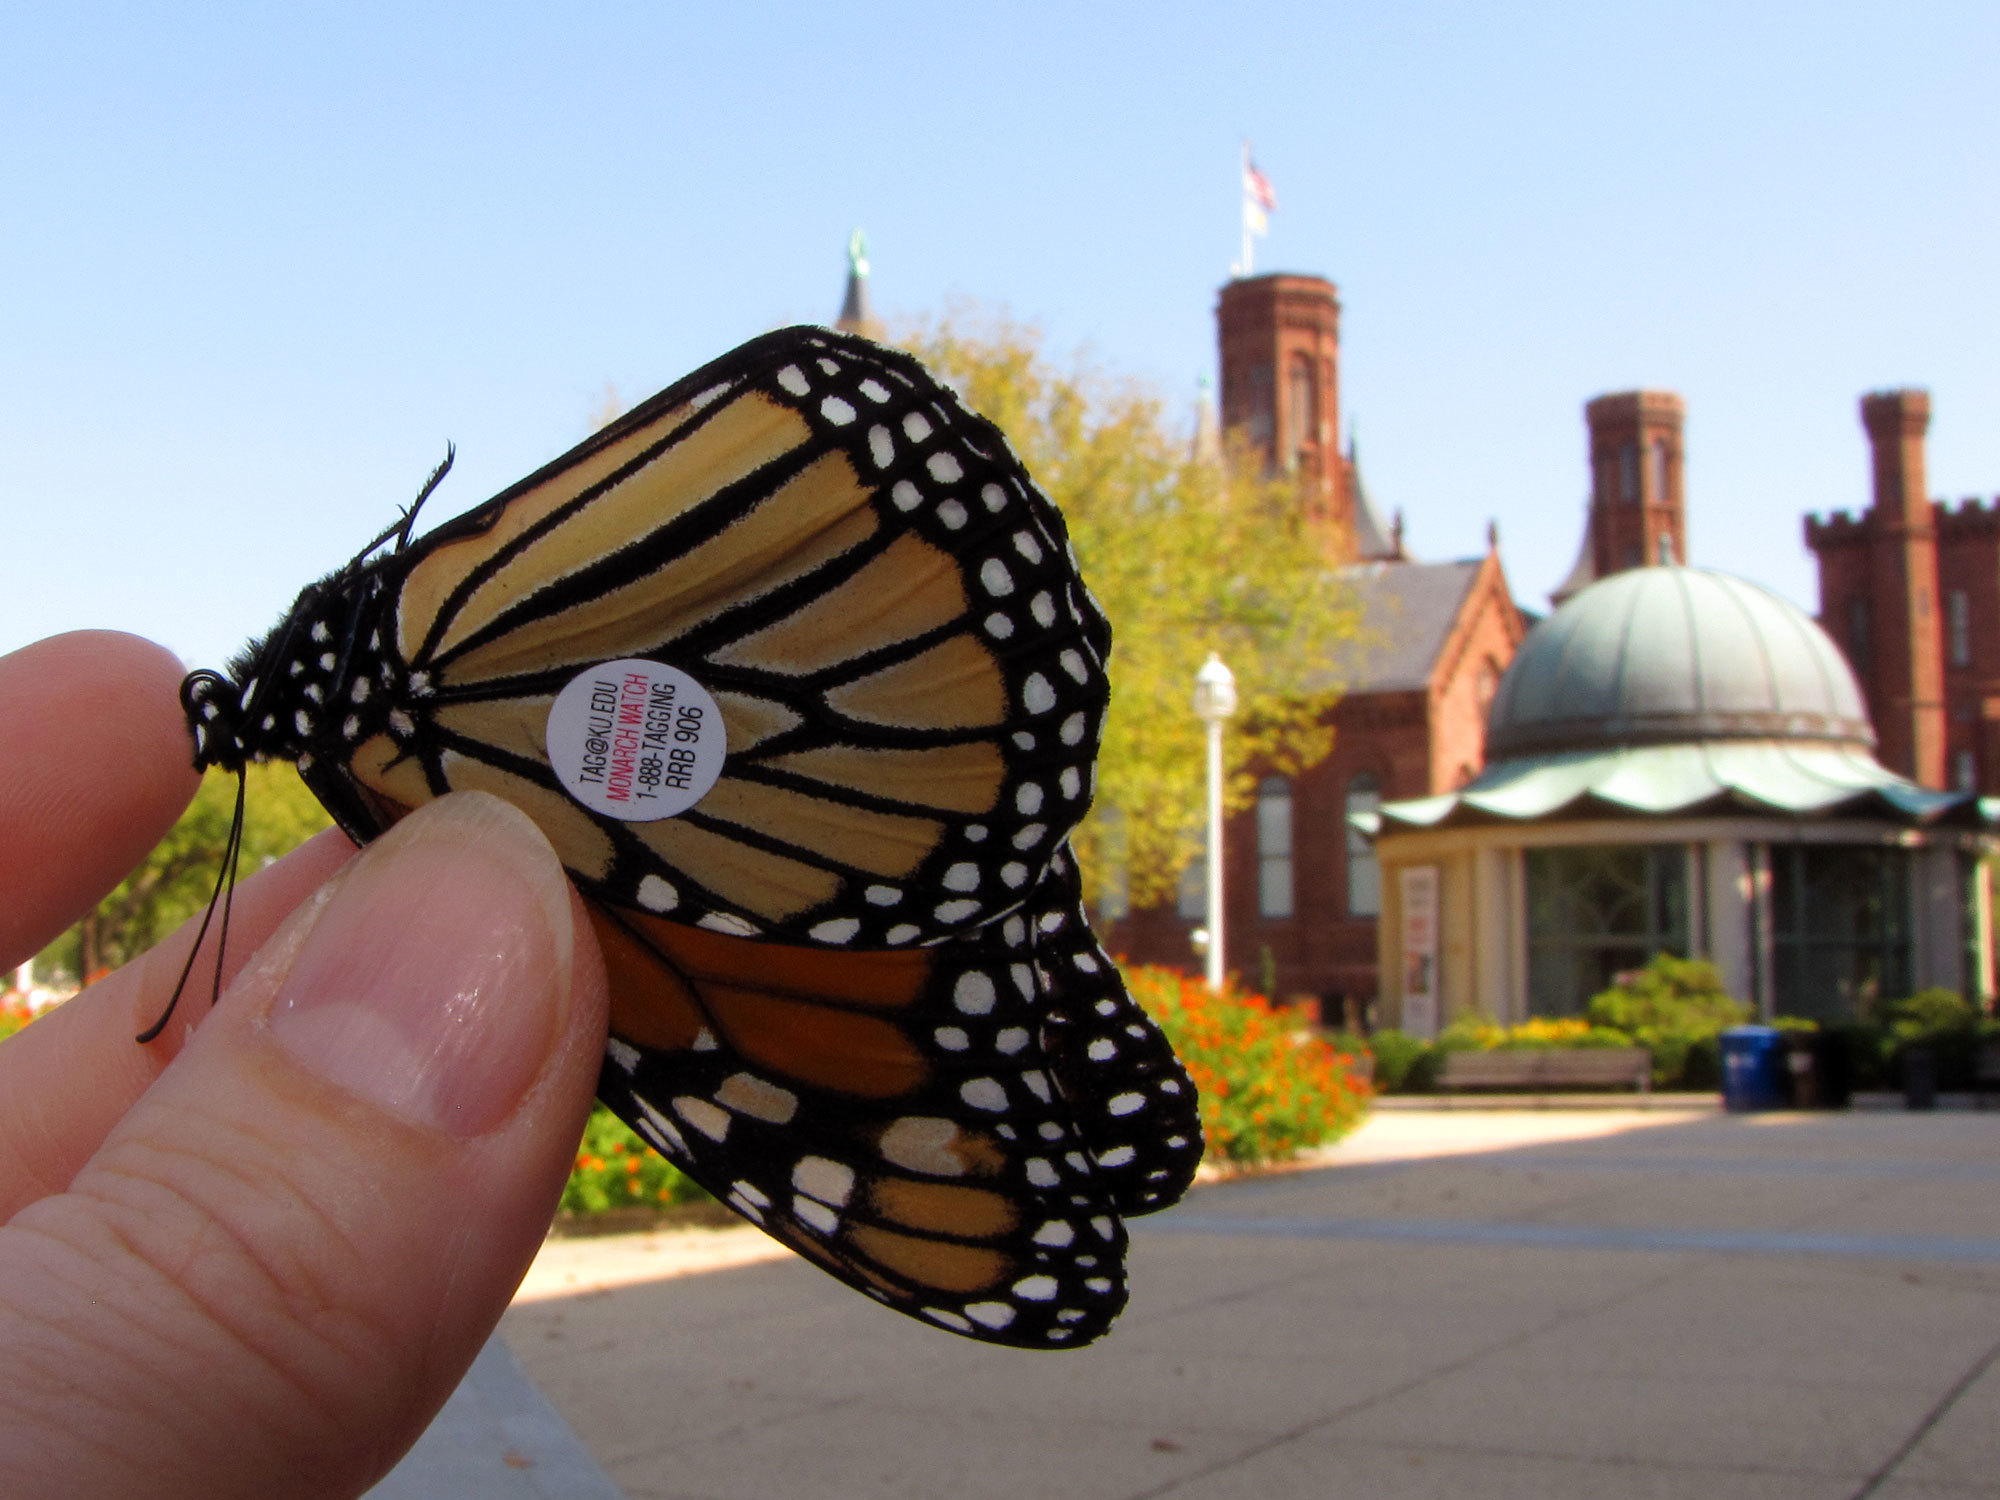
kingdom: Animalia
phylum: Arthropoda
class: Insecta
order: Lepidoptera
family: Nymphalidae
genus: Danaus
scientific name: Danaus plexippus
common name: Monarch
